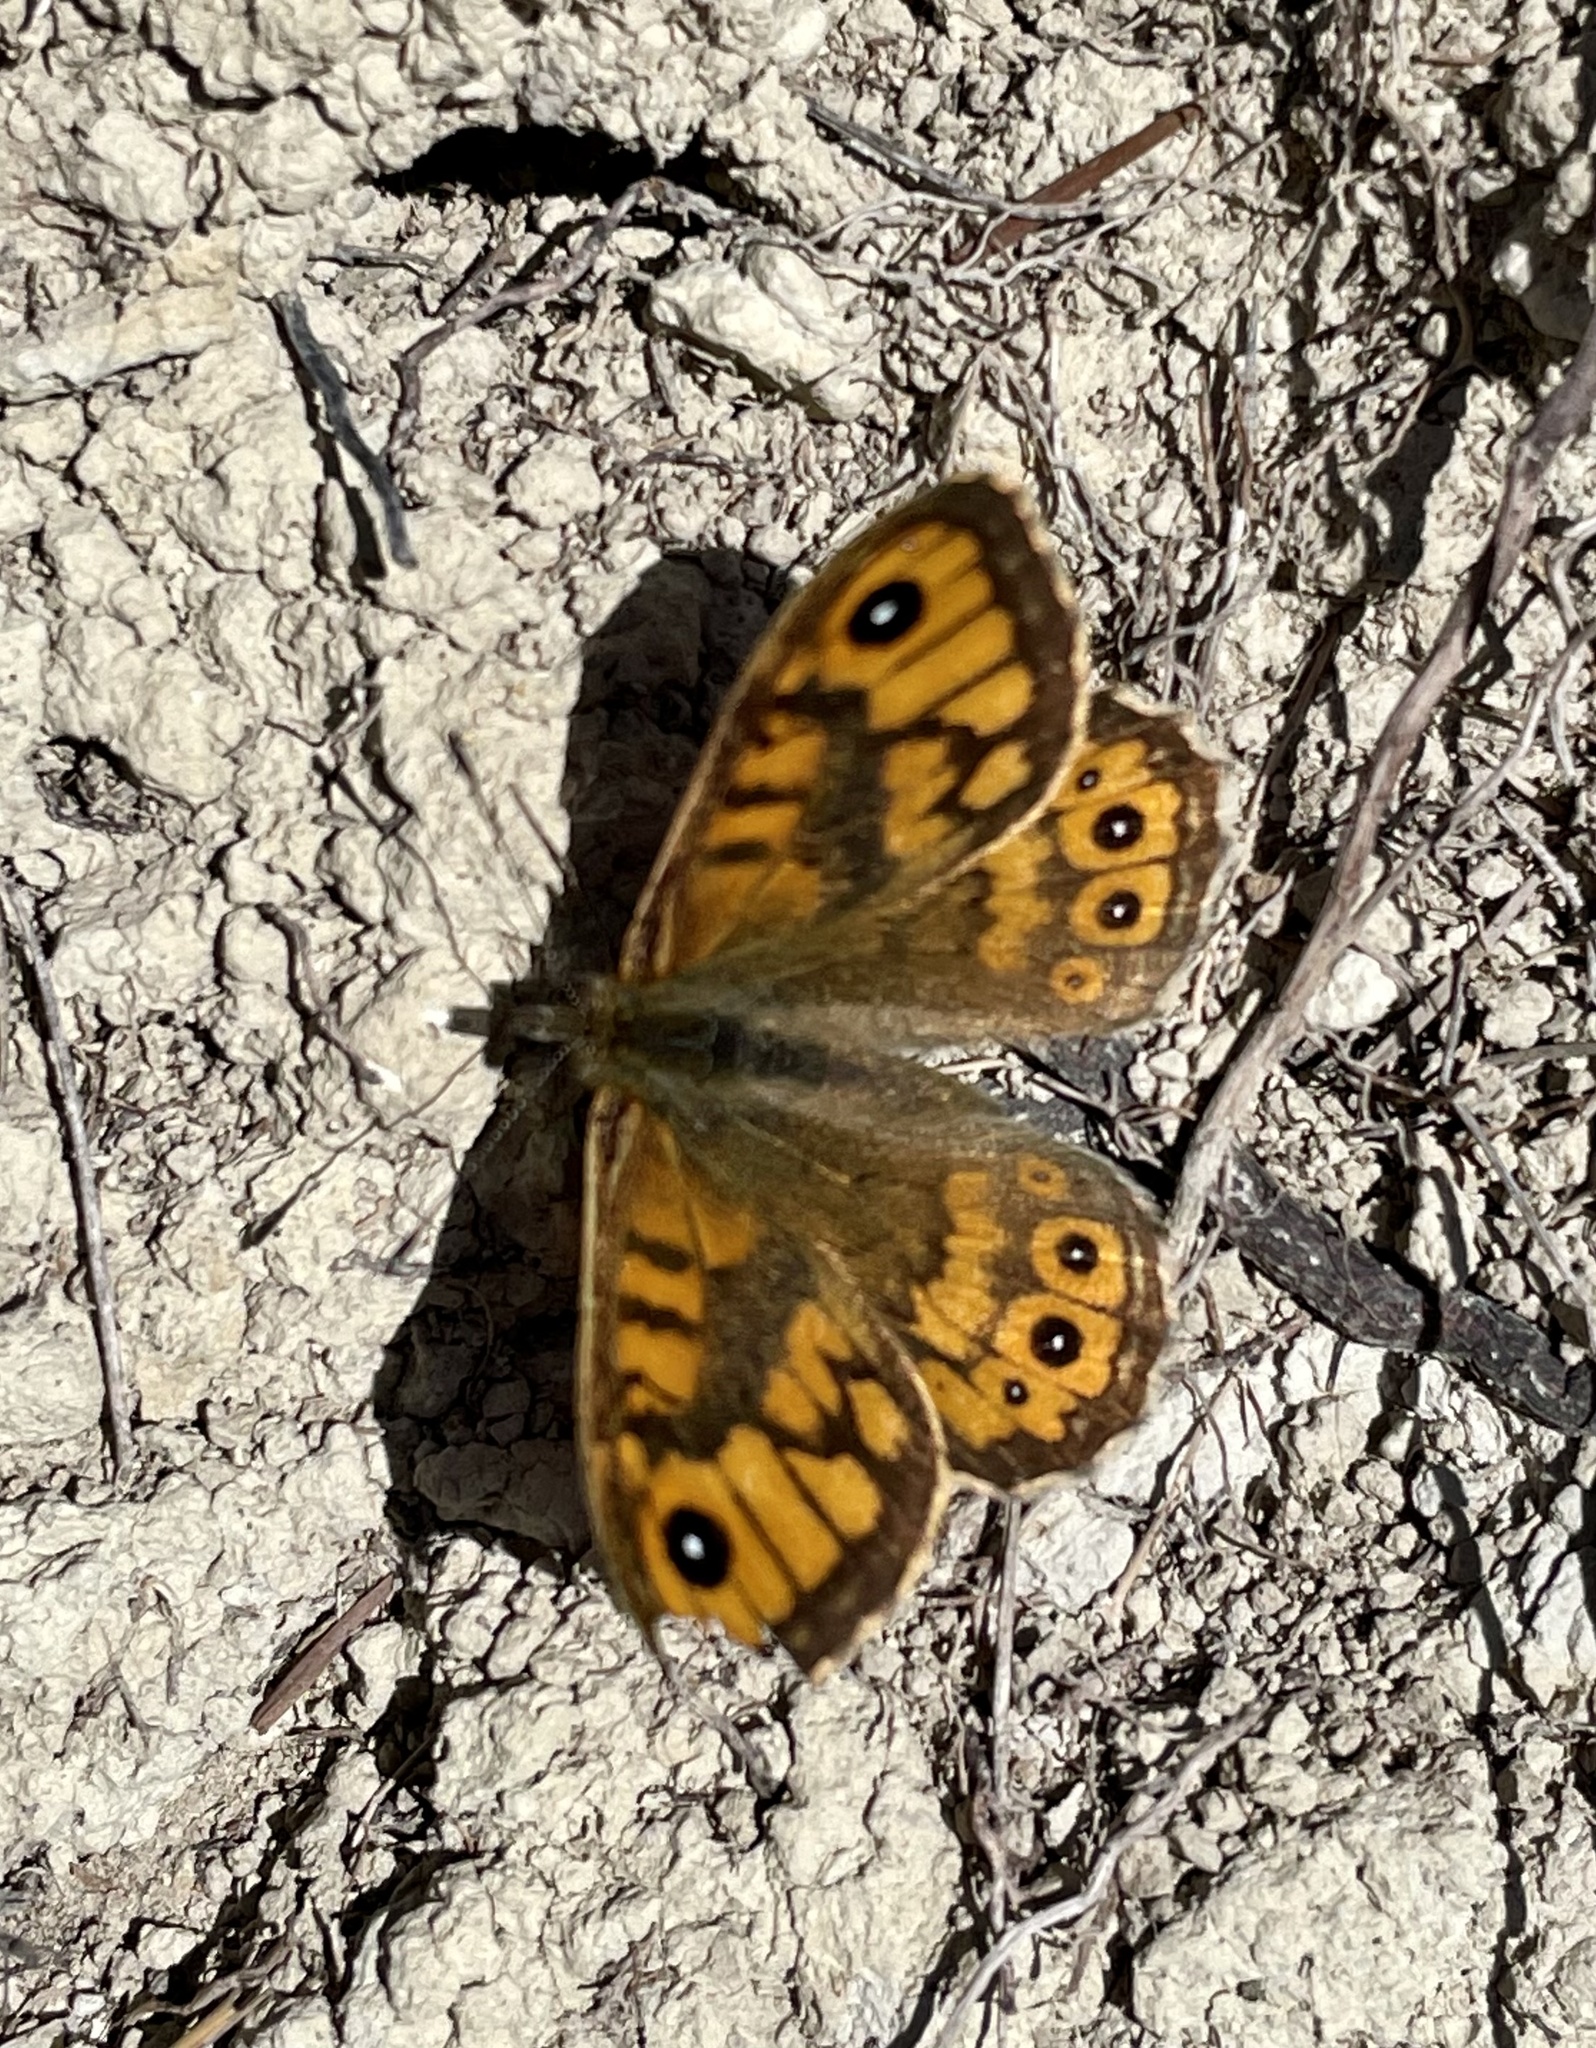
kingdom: Animalia
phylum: Arthropoda
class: Insecta
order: Lepidoptera
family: Nymphalidae
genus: Pararge
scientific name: Pararge Lasiommata megera
